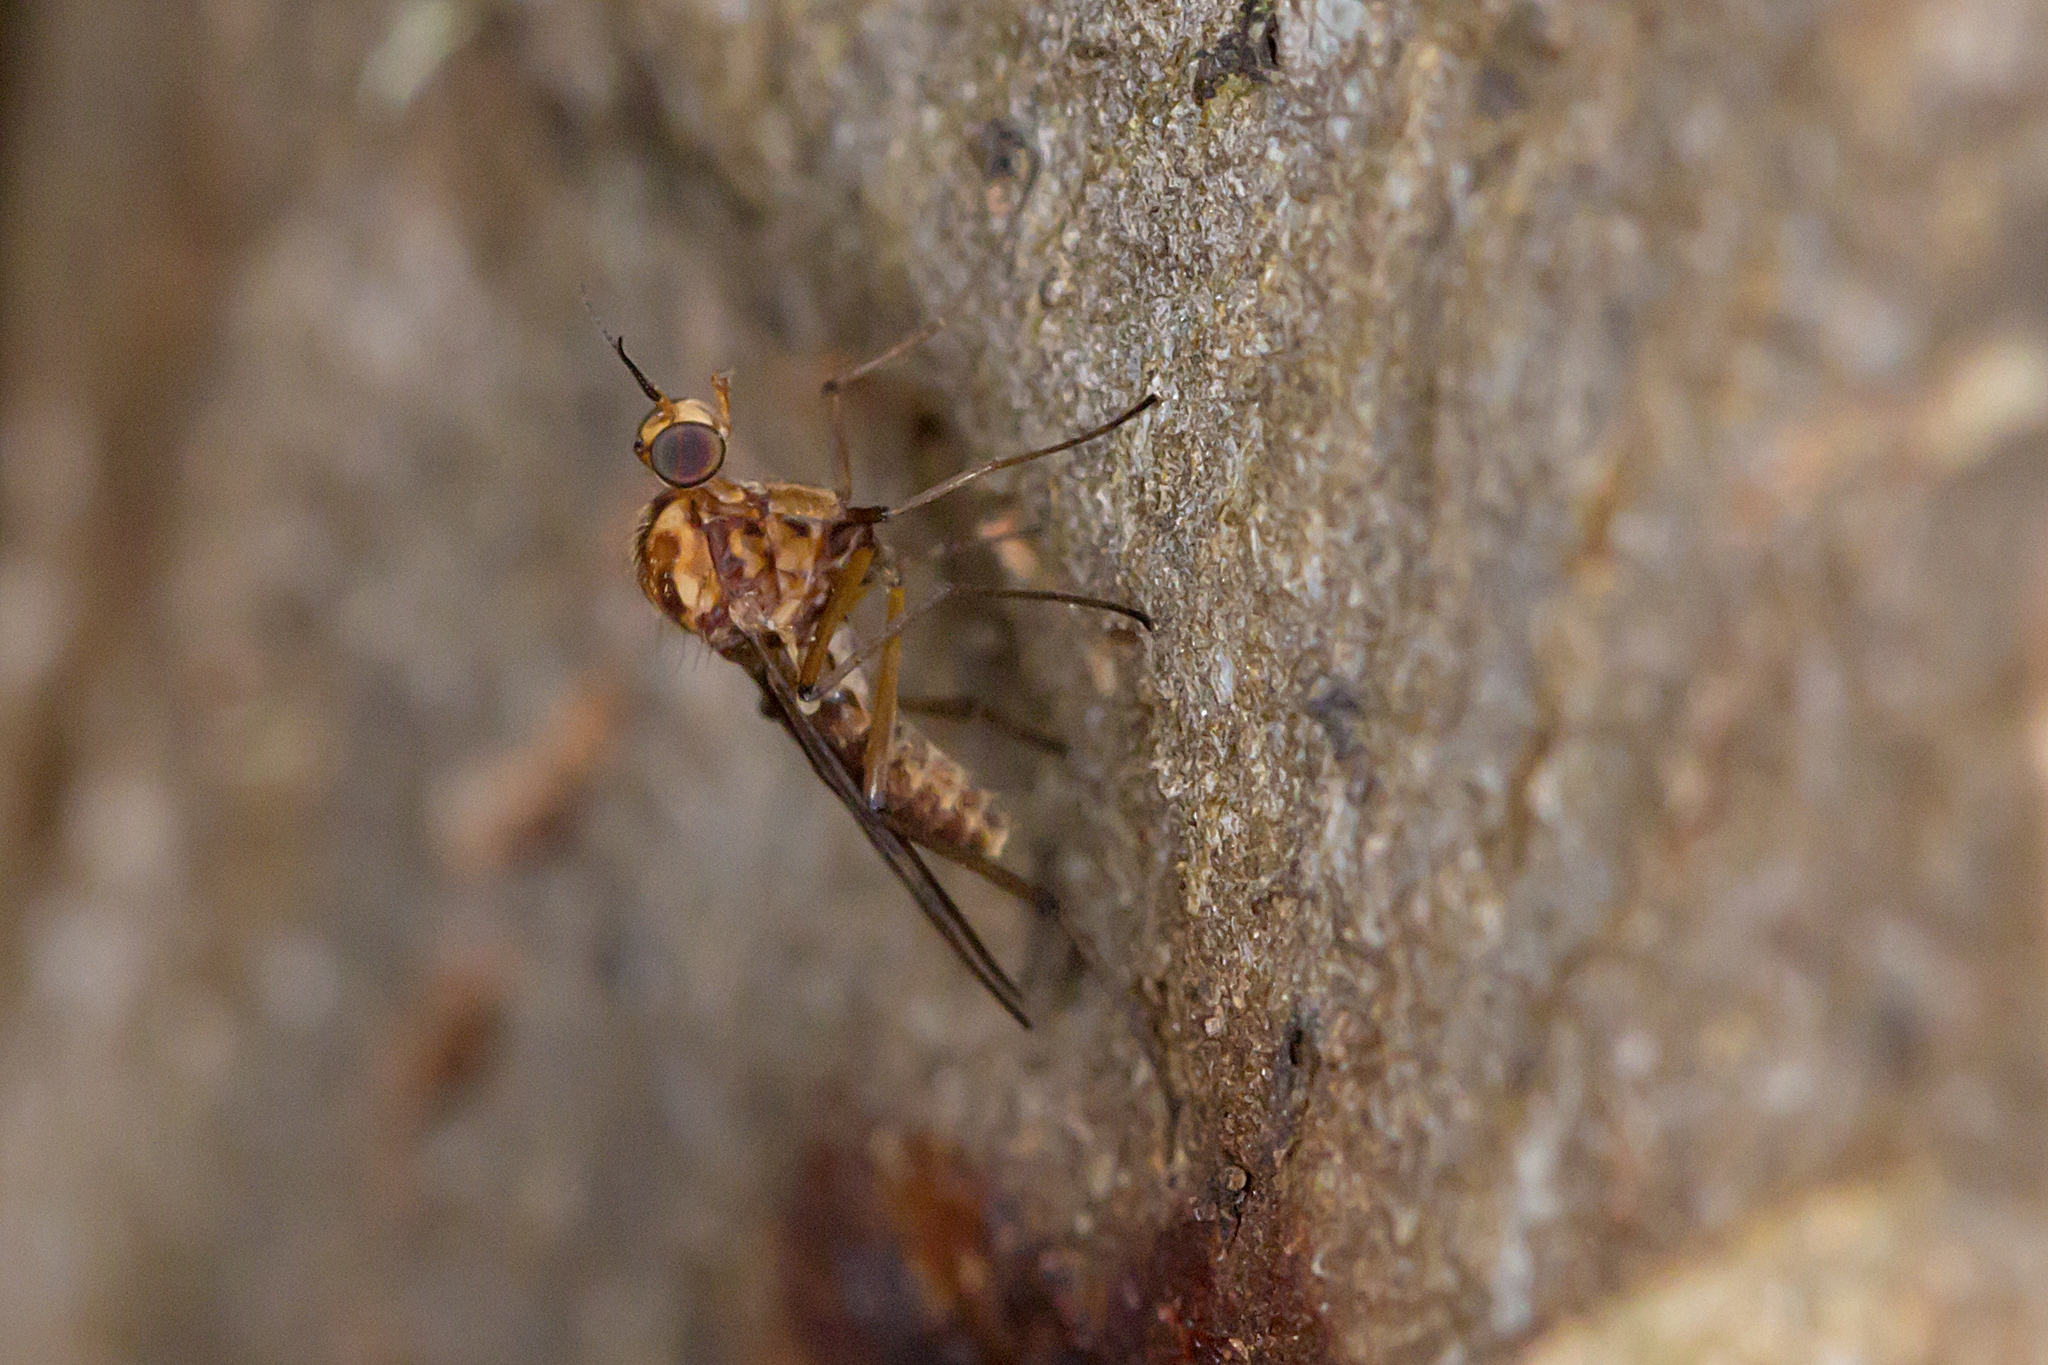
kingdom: Animalia
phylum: Arthropoda
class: Insecta
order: Diptera
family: Anisopodidae
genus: Sylvicola
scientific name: Sylvicola dubius
